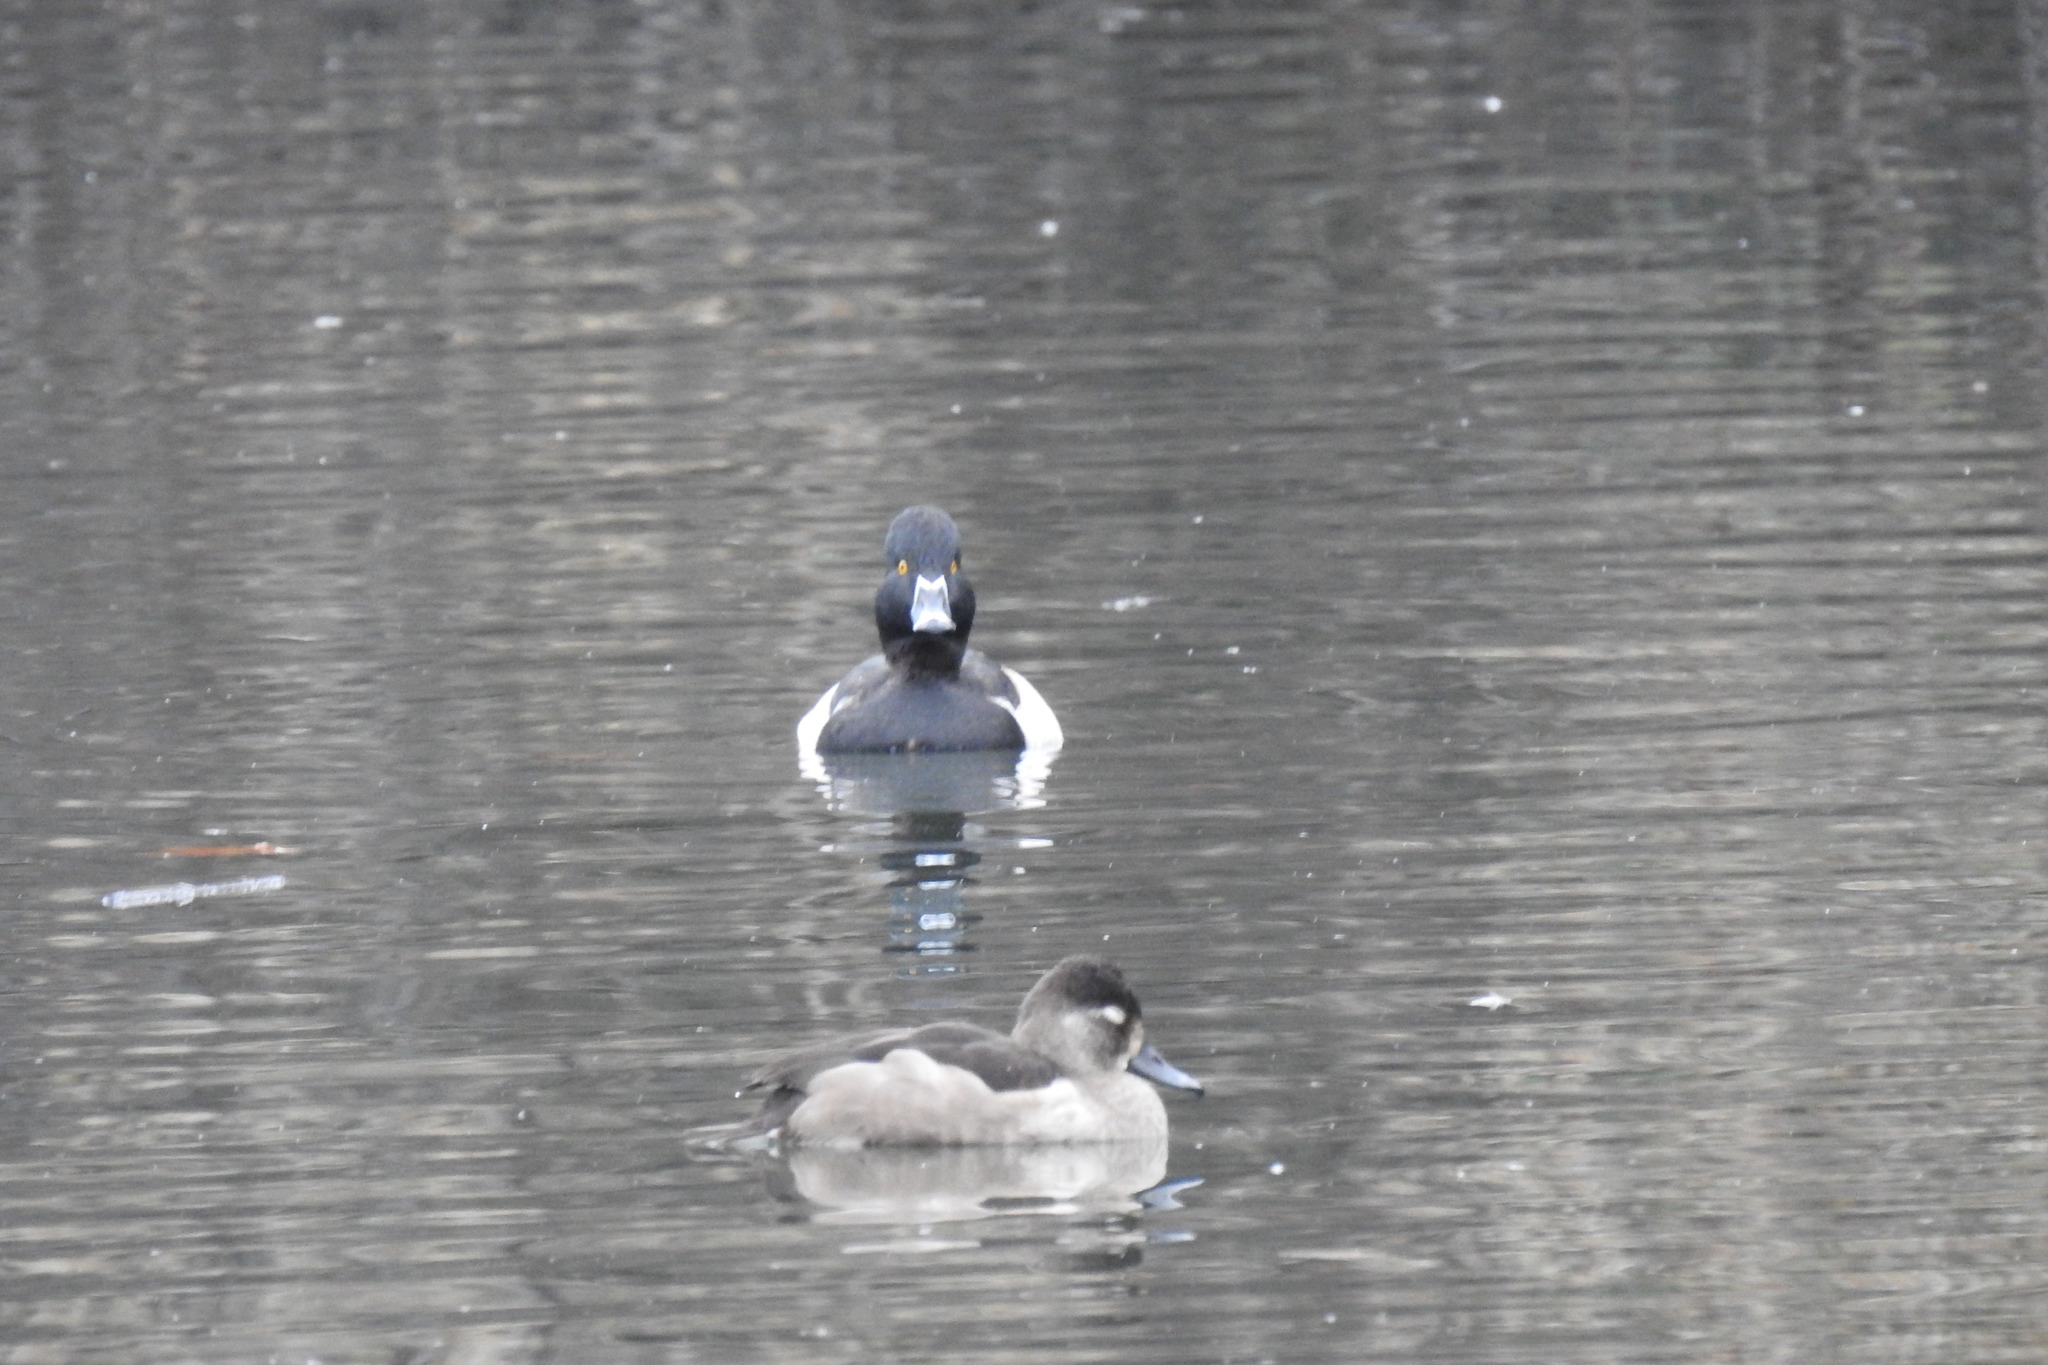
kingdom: Animalia
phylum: Chordata
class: Aves
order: Anseriformes
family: Anatidae
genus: Aythya
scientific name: Aythya collaris
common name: Ring-necked duck
